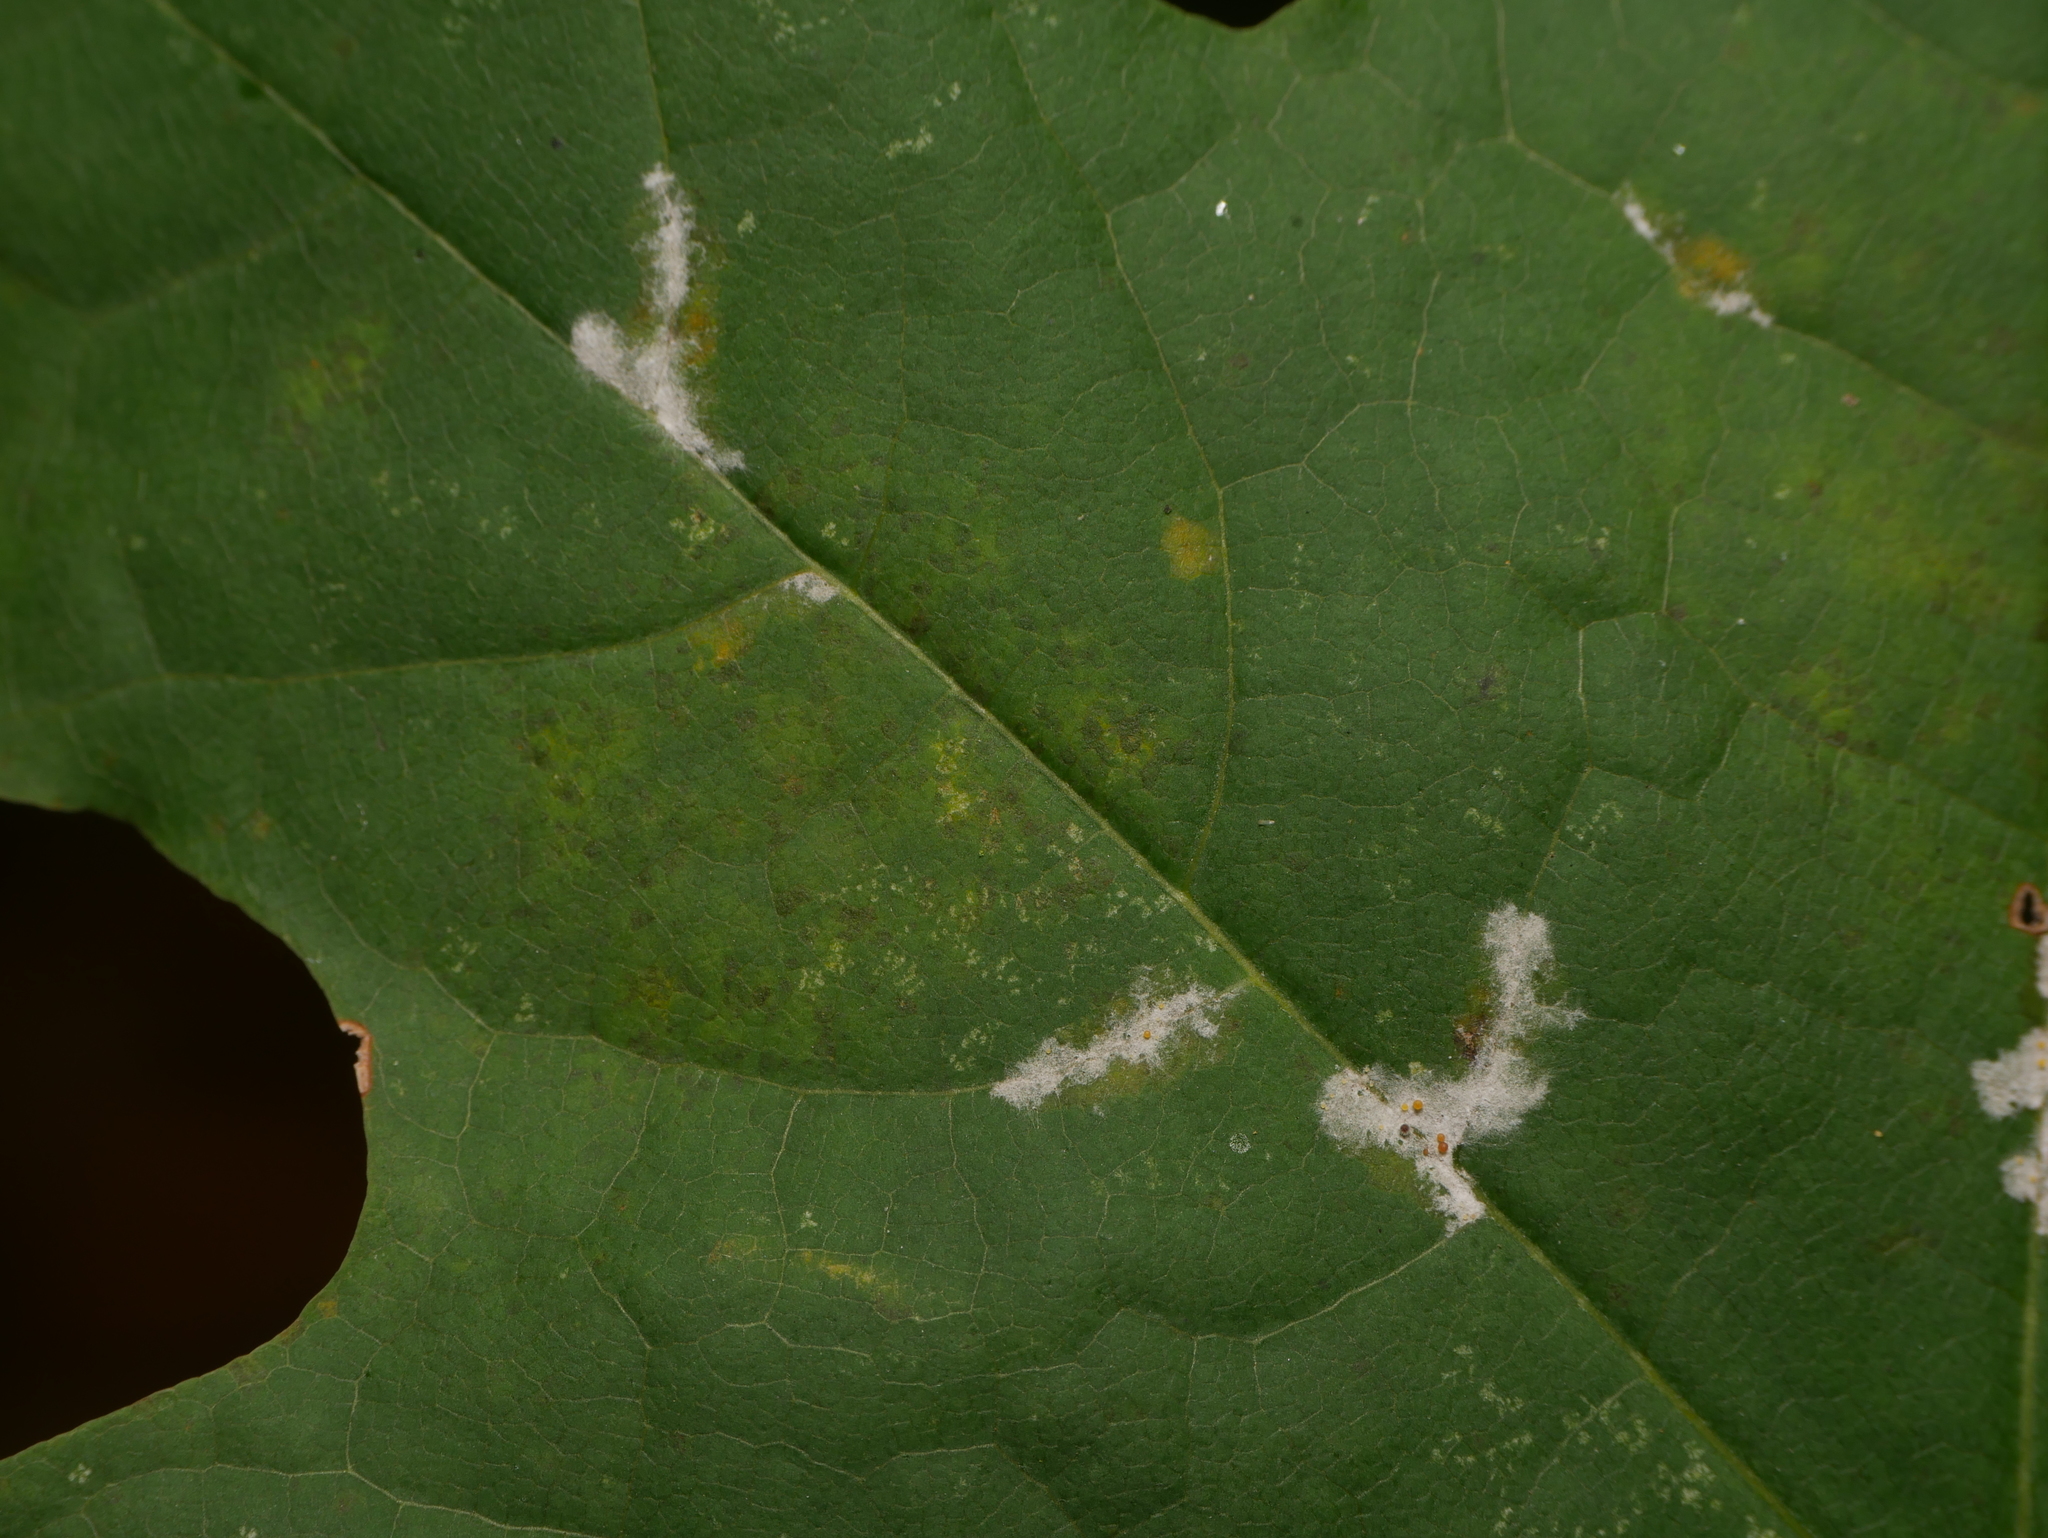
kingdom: Fungi
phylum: Ascomycota
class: Leotiomycetes
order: Helotiales
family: Erysiphaceae
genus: Sawadaea
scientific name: Sawadaea tulasnei
